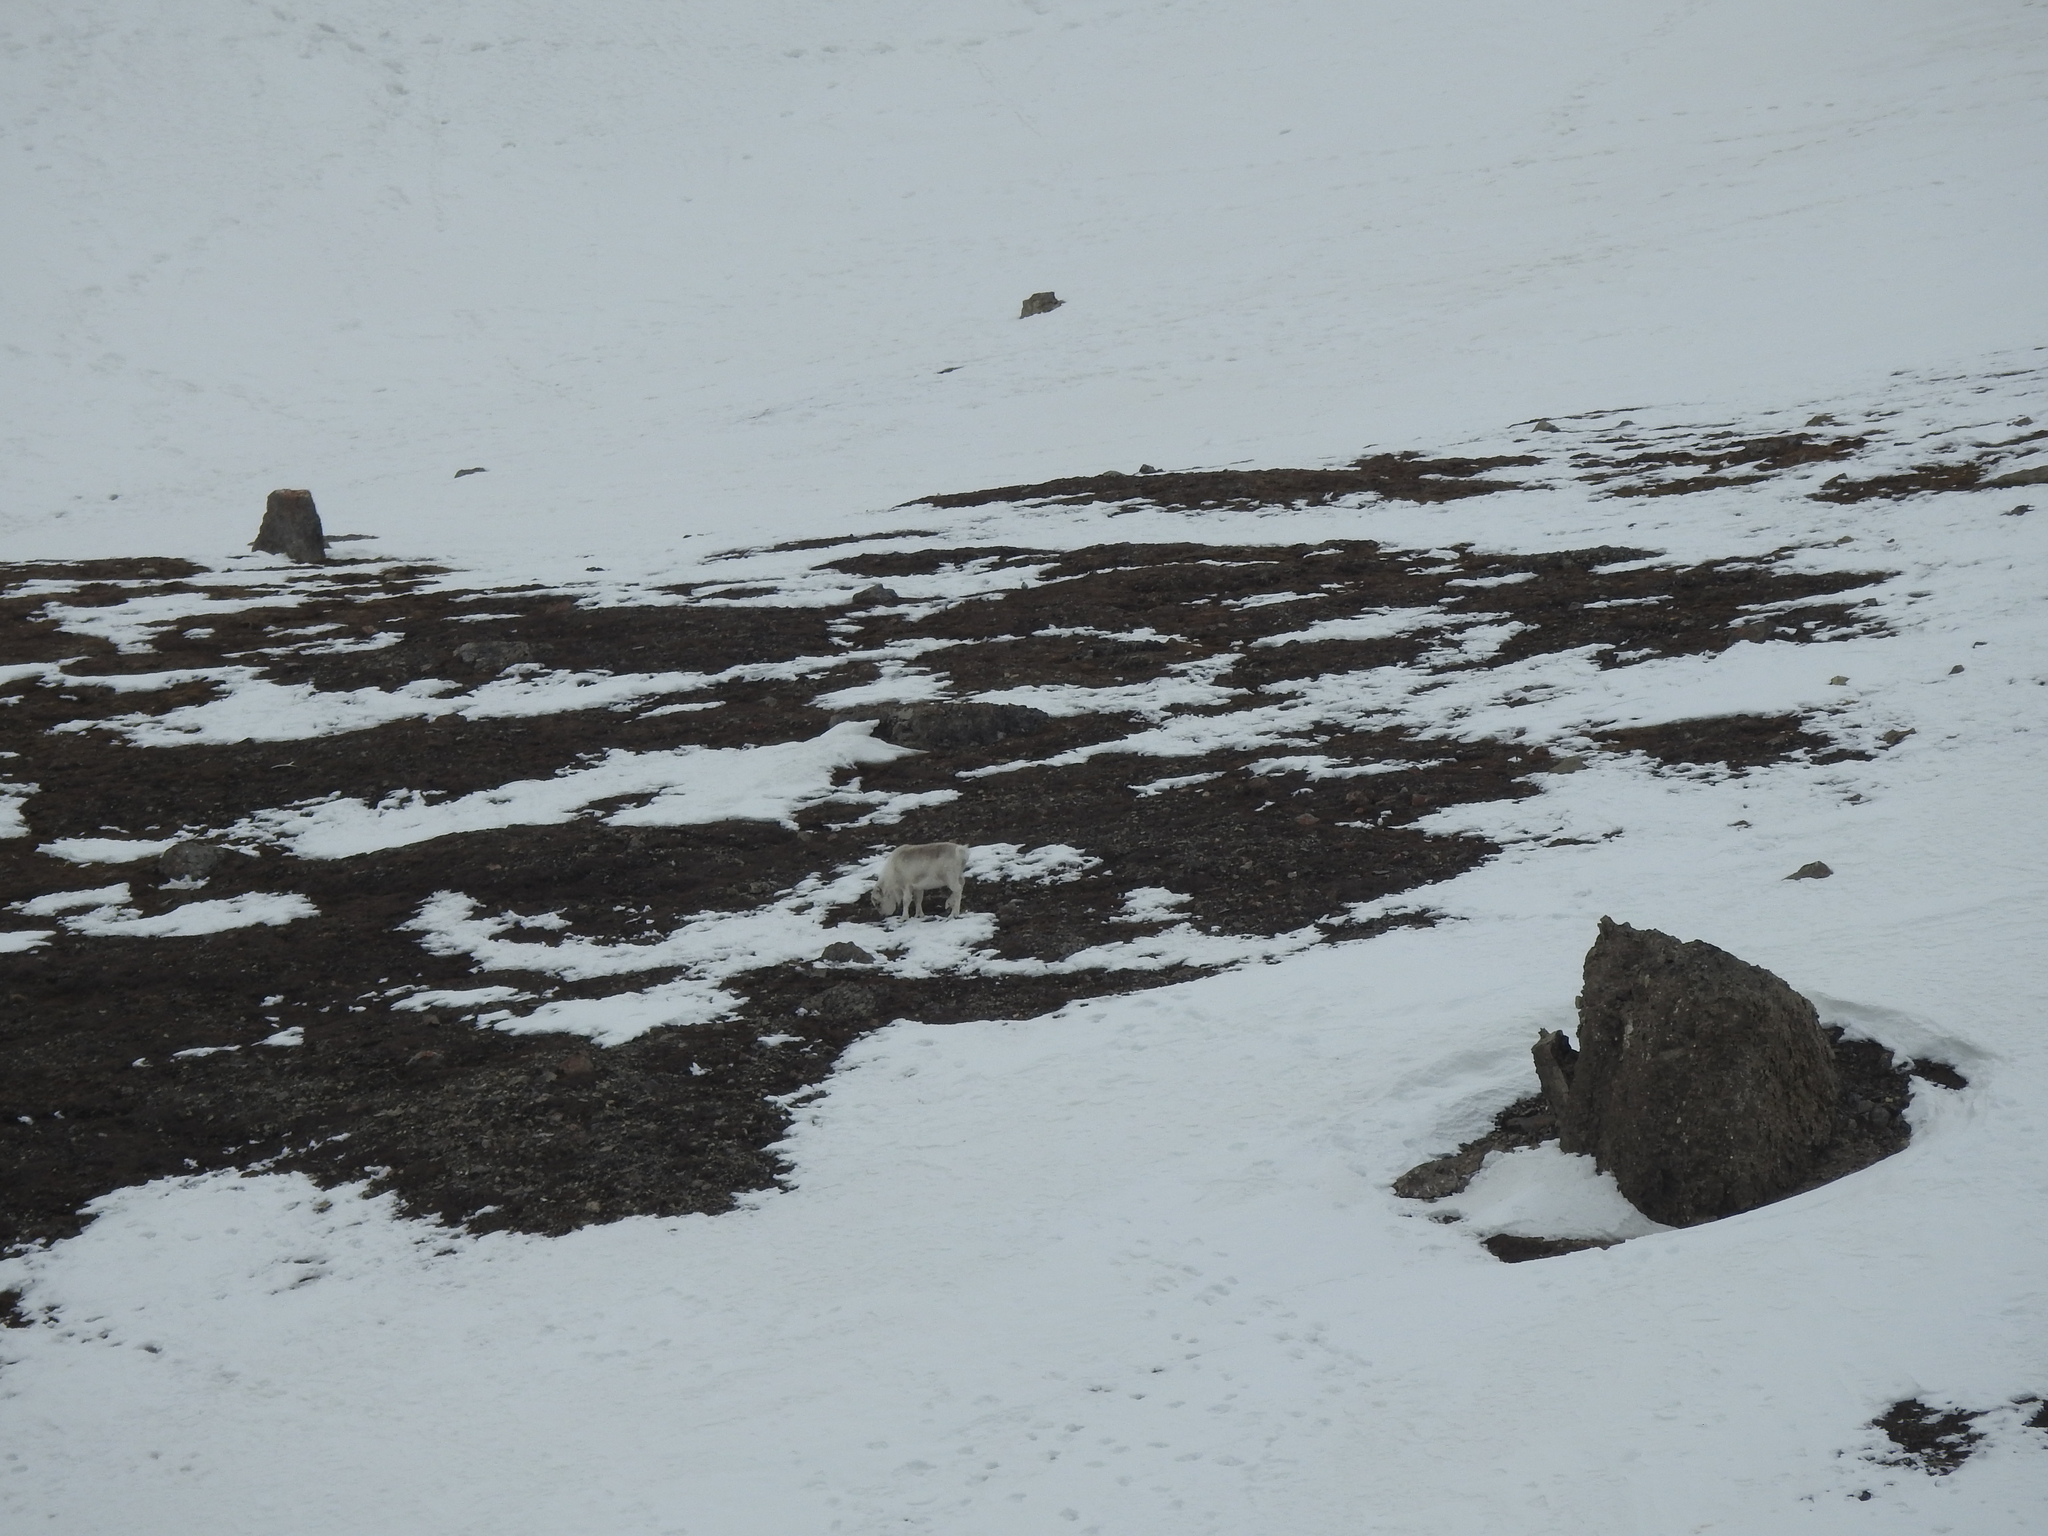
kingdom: Animalia
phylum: Chordata
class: Mammalia
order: Artiodactyla
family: Cervidae
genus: Rangifer
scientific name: Rangifer tarandus
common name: Reindeer
